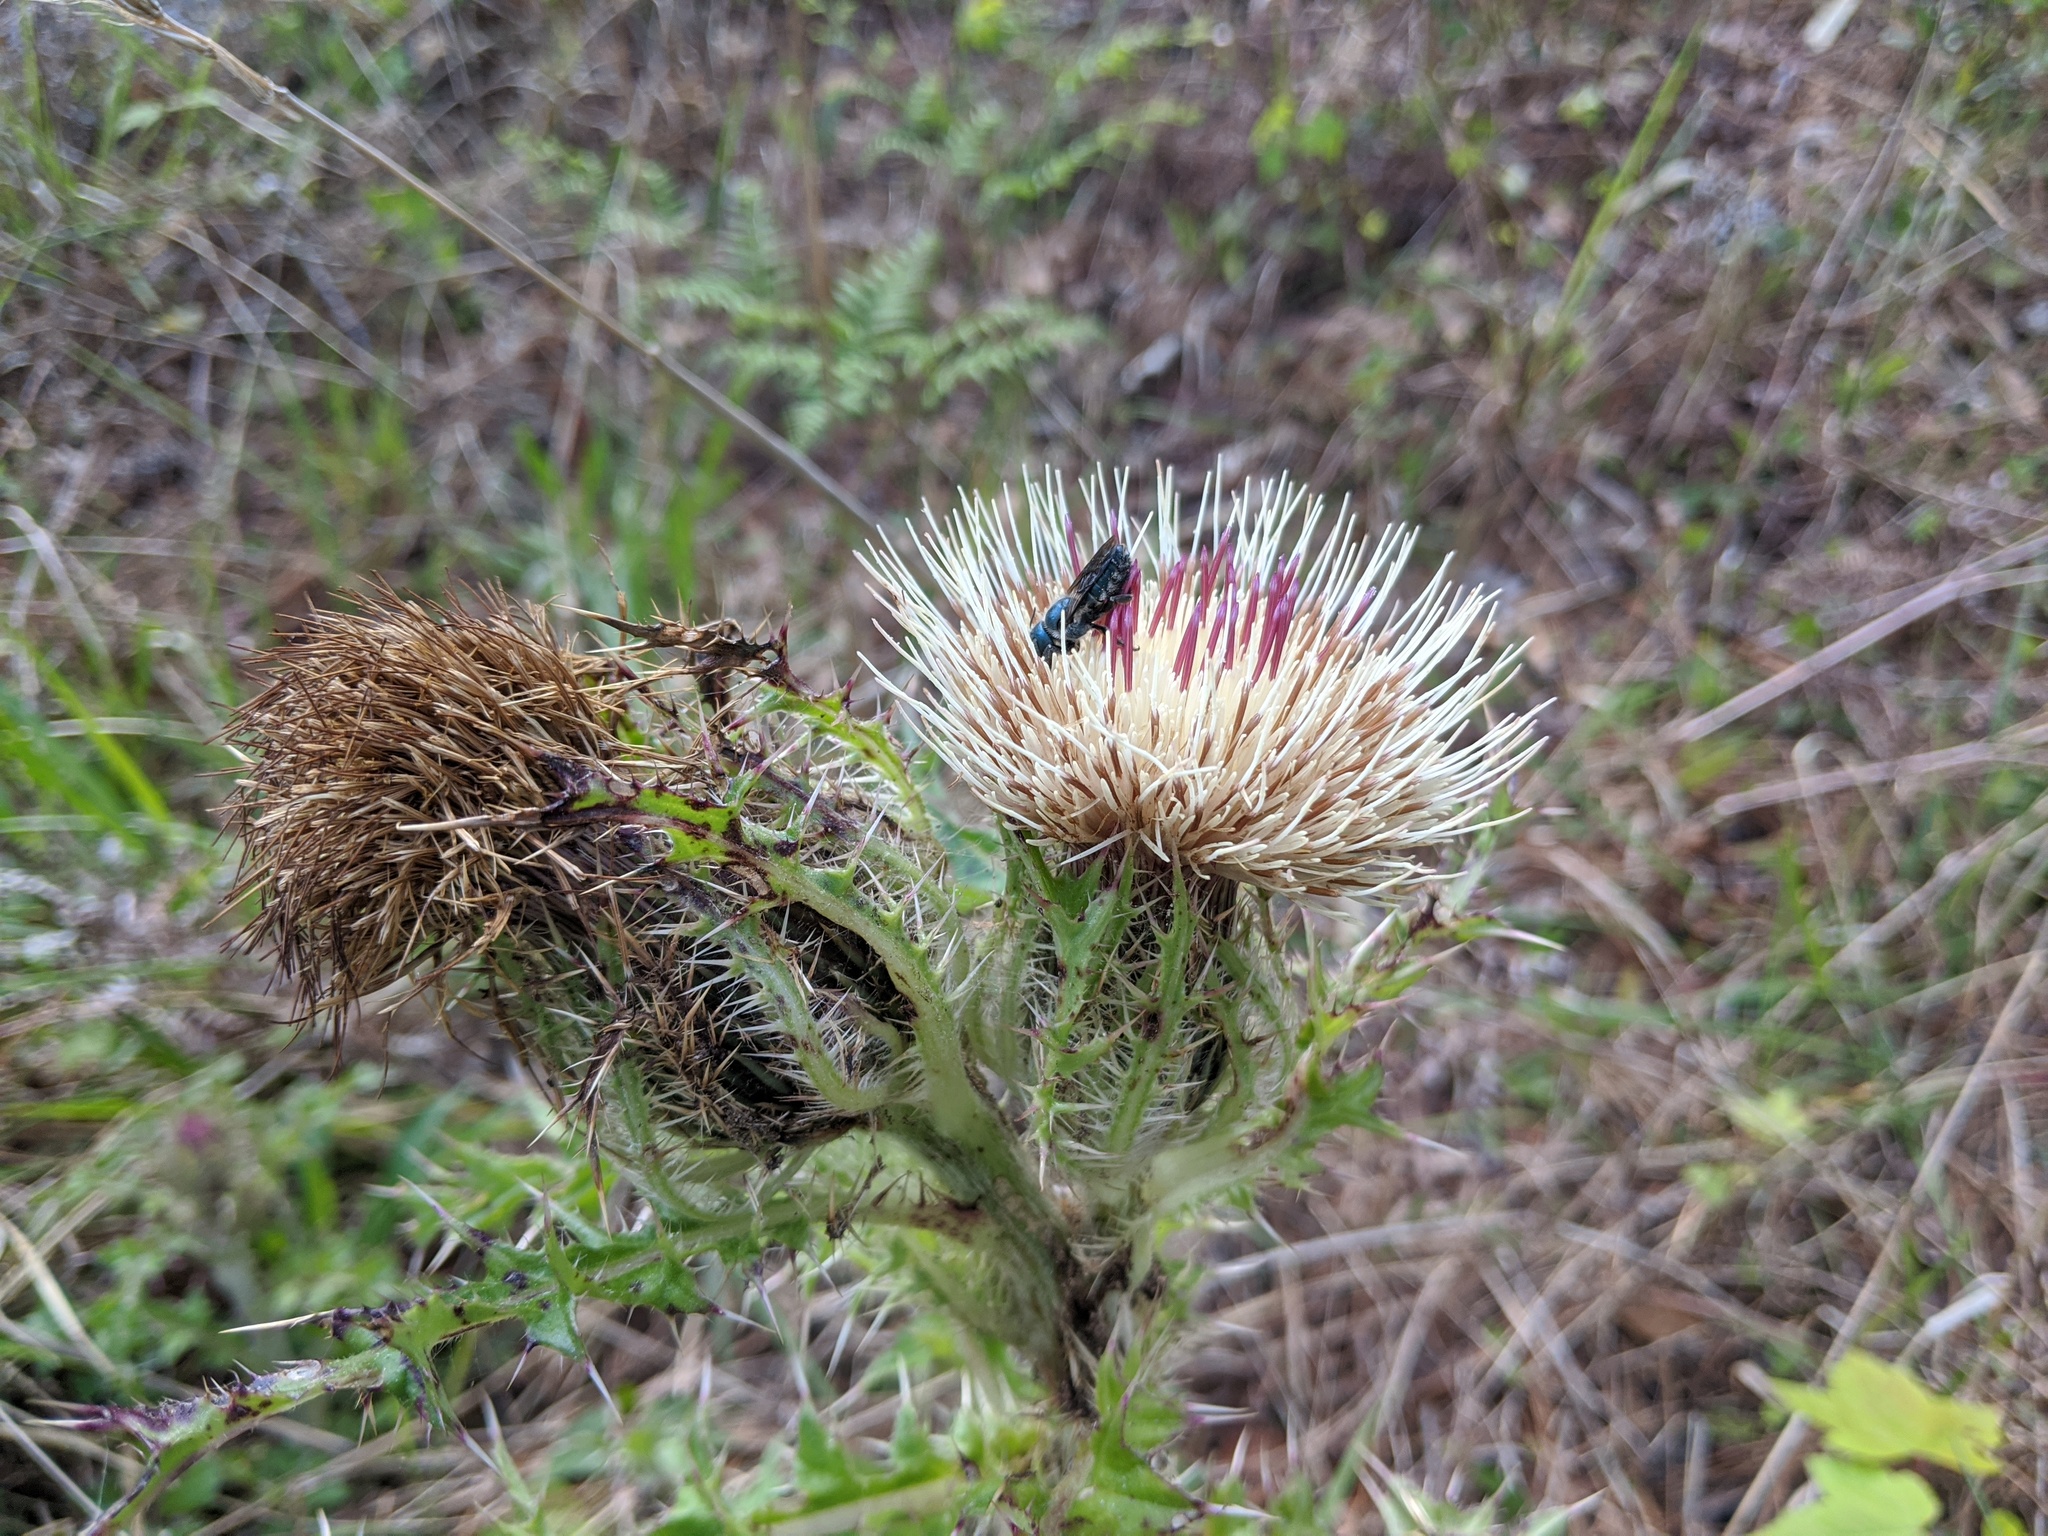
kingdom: Plantae
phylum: Tracheophyta
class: Magnoliopsida
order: Asterales
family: Asteraceae
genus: Cirsium
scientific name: Cirsium horridulum
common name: Bristly thistle
